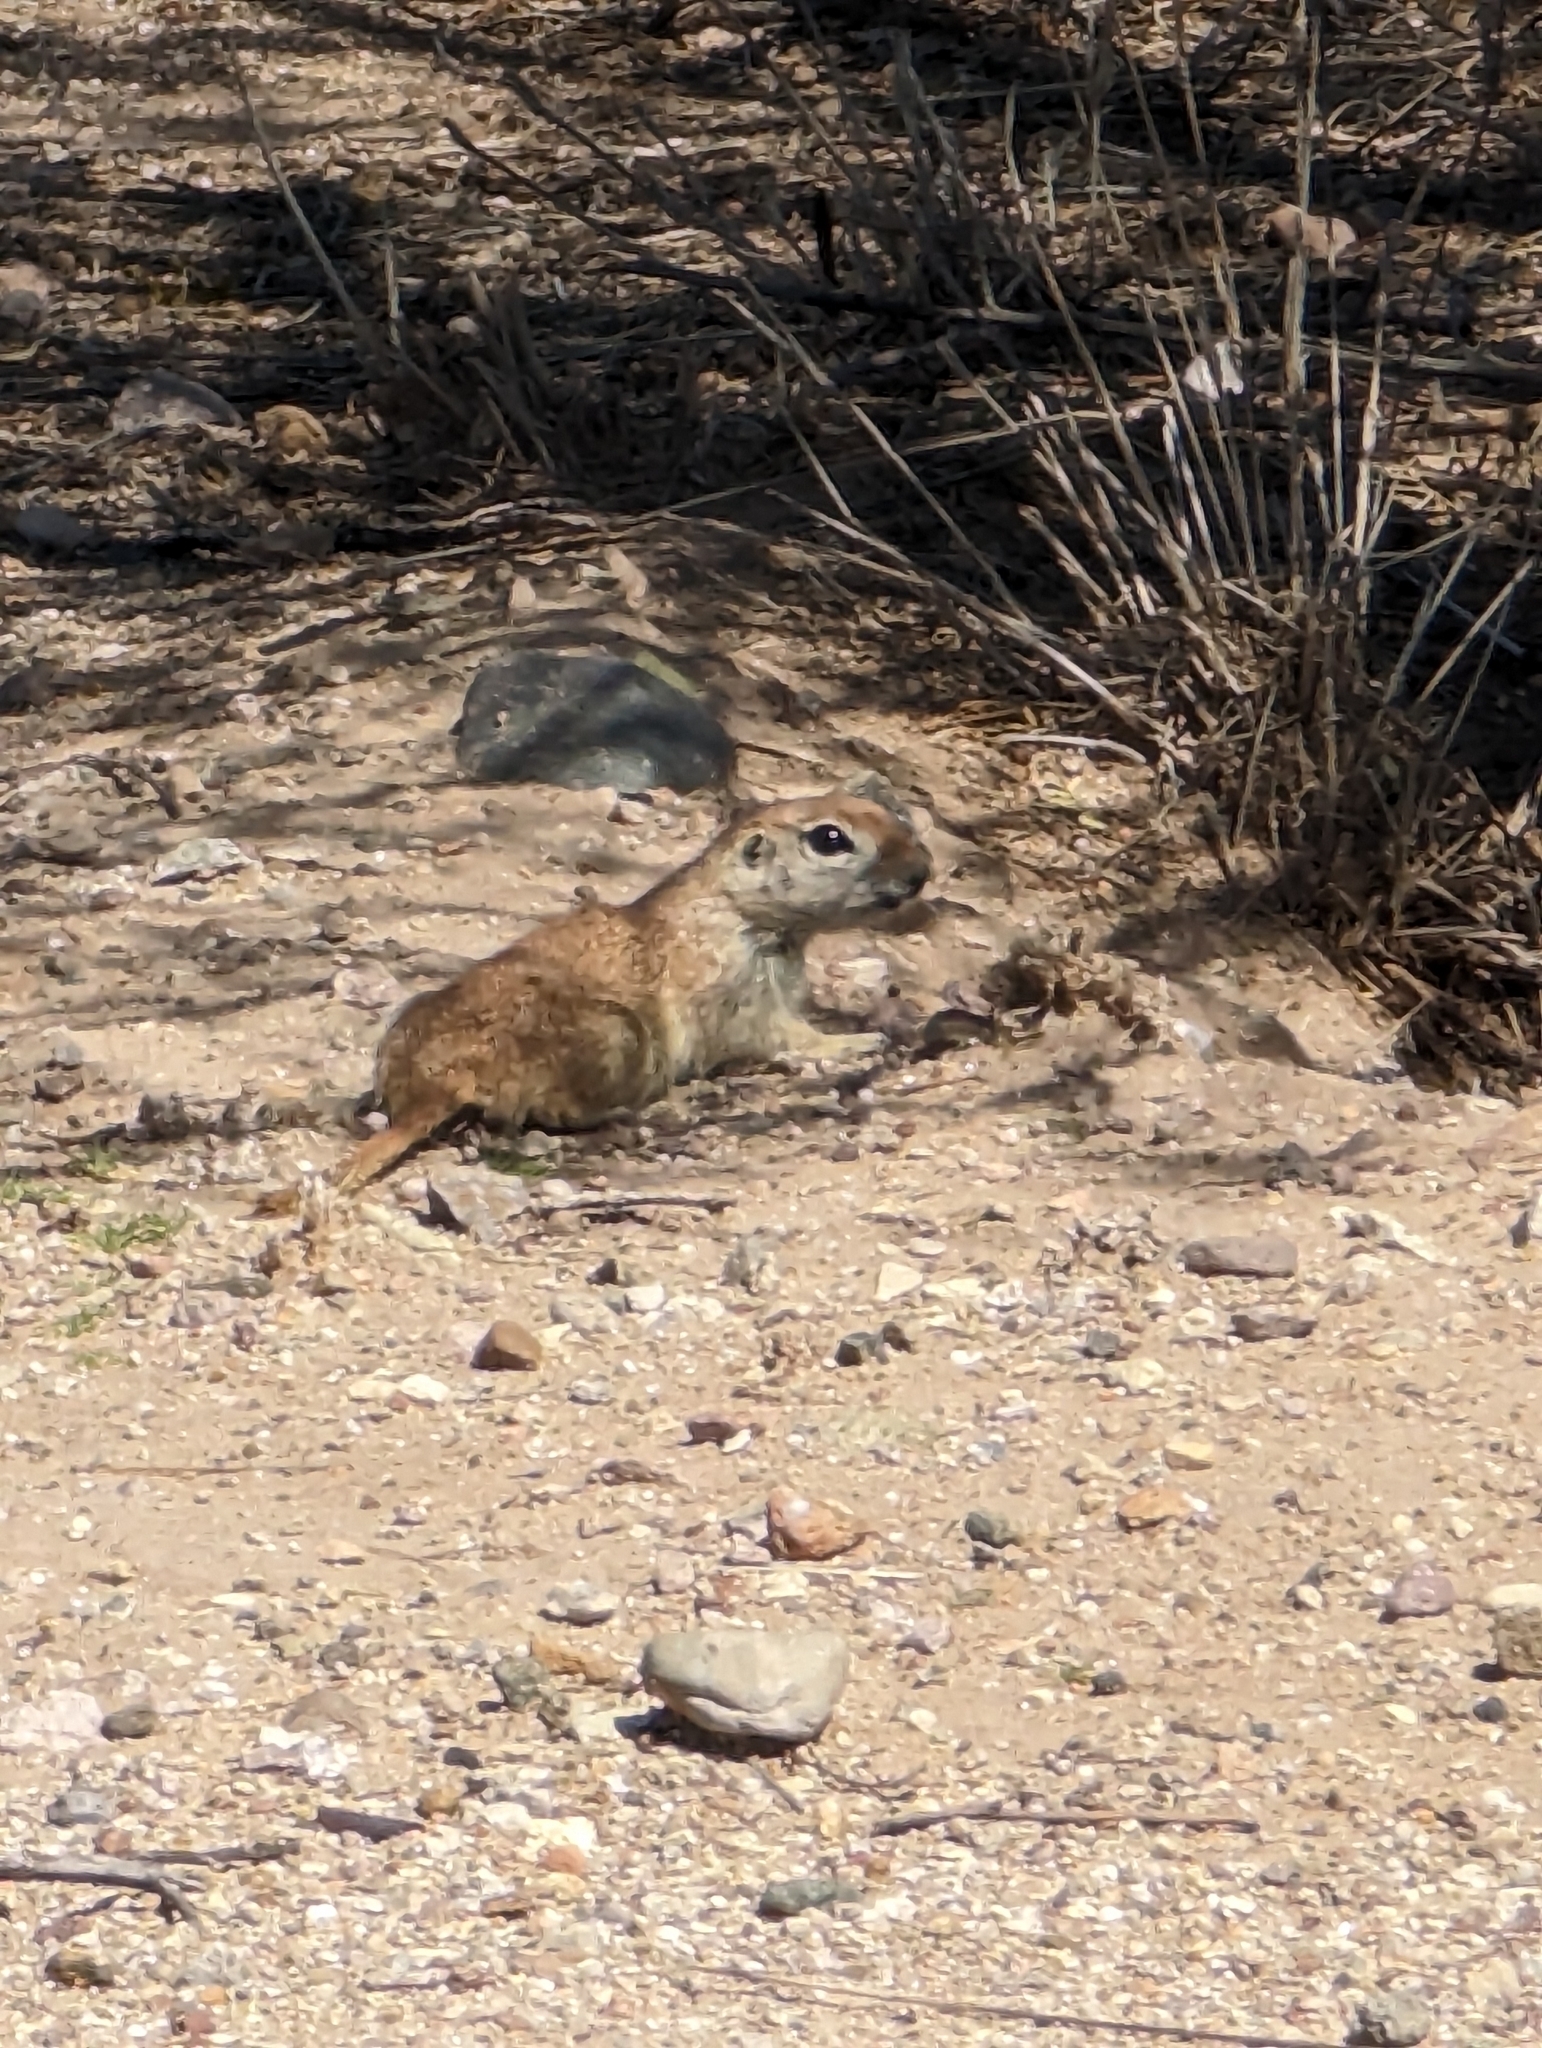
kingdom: Animalia
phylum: Chordata
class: Mammalia
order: Rodentia
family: Sciuridae
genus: Xerospermophilus
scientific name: Xerospermophilus tereticaudus
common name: Round-tailed ground squirrel
